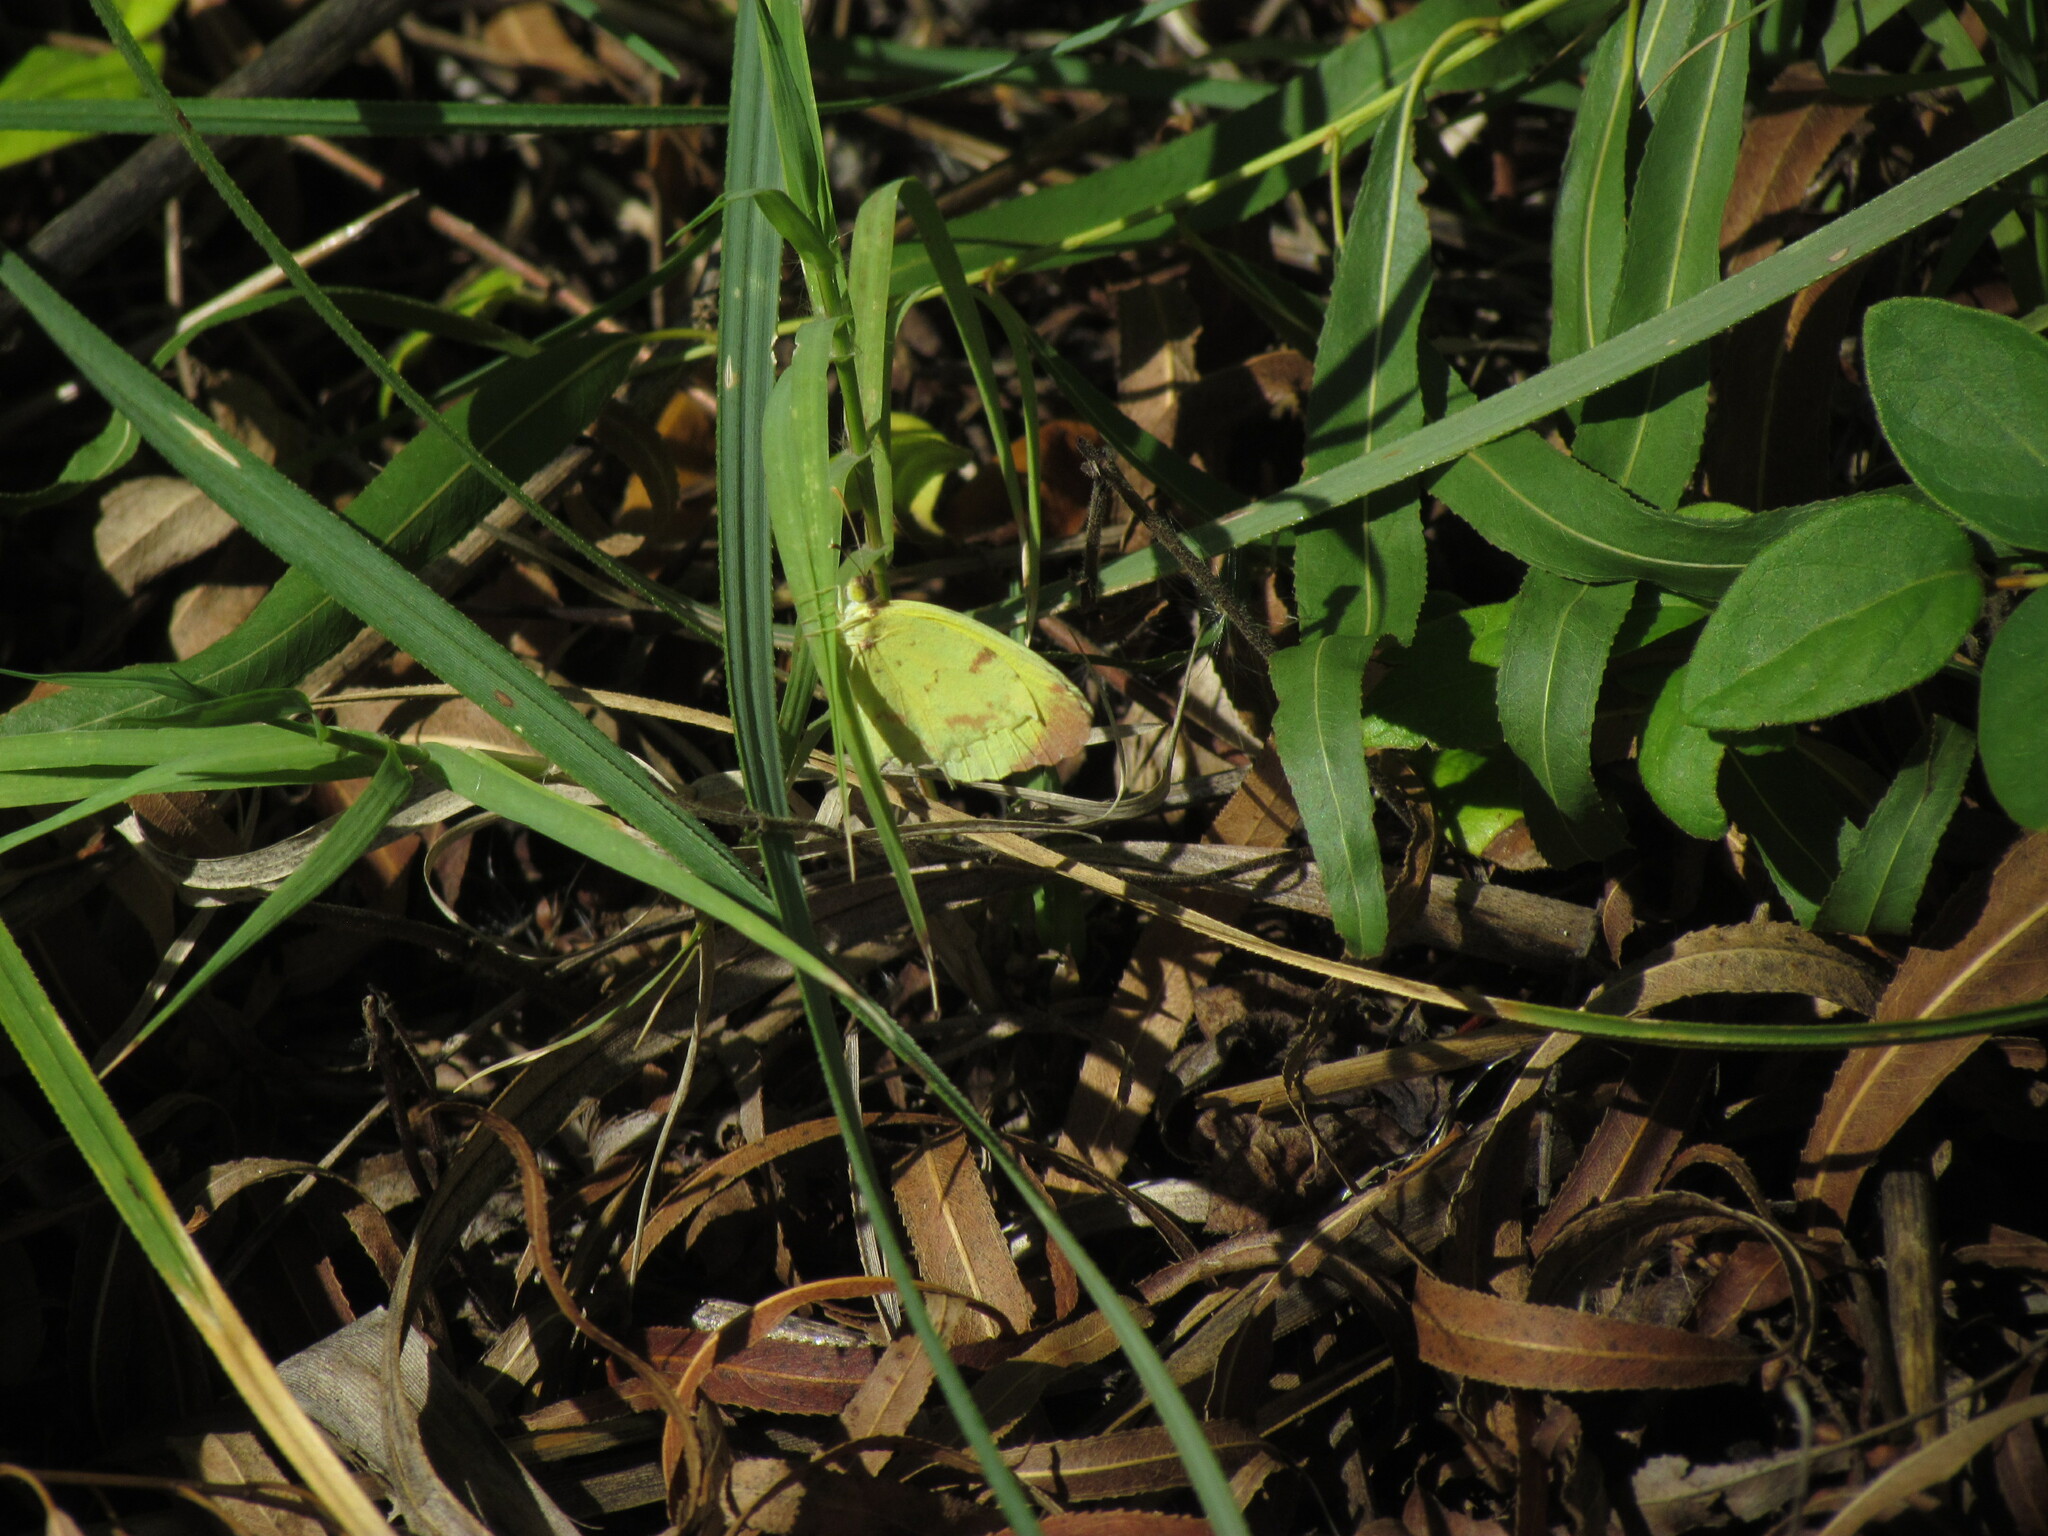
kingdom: Animalia
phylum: Arthropoda
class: Insecta
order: Lepidoptera
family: Pieridae
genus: Teriocolias
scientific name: Teriocolias
